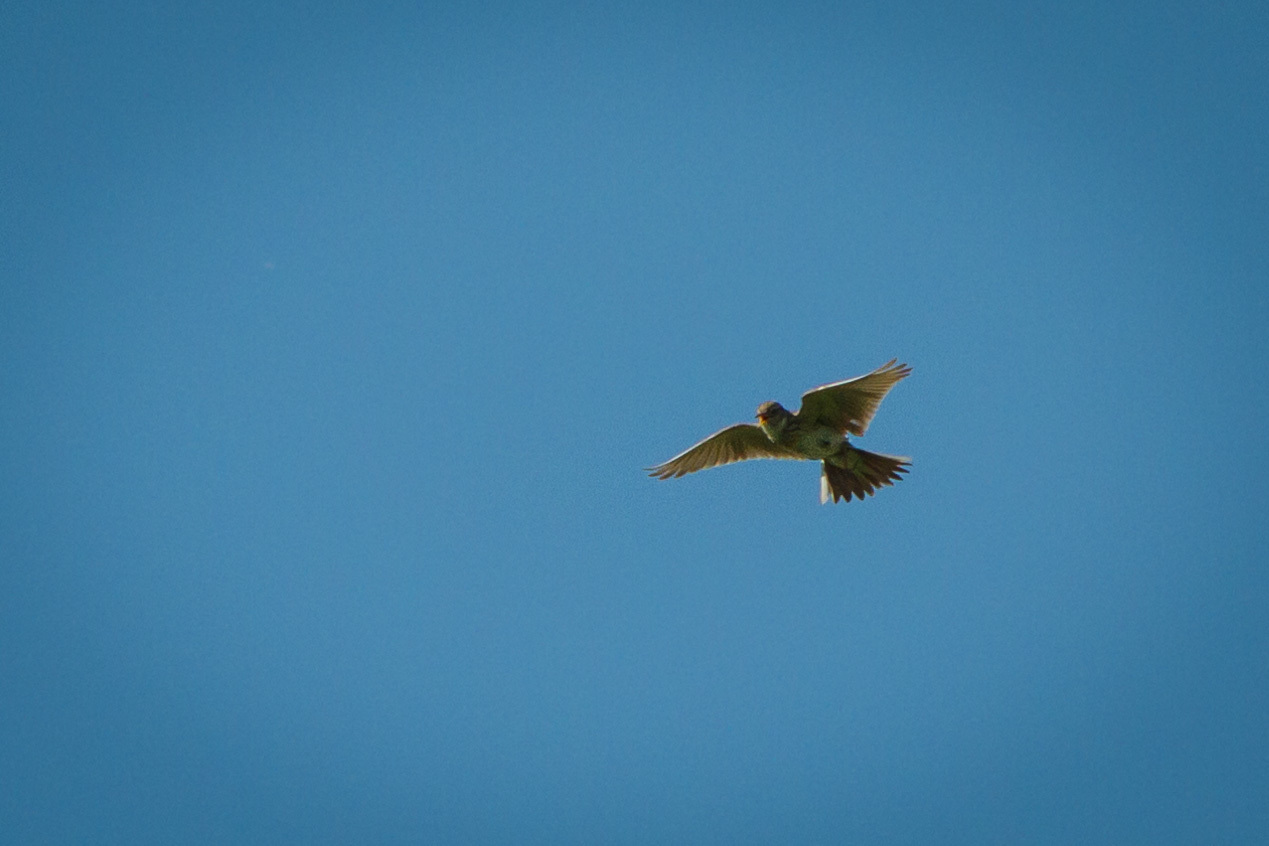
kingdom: Animalia
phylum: Chordata
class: Aves
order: Passeriformes
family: Alaudidae
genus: Alauda
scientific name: Alauda arvensis
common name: Eurasian skylark
